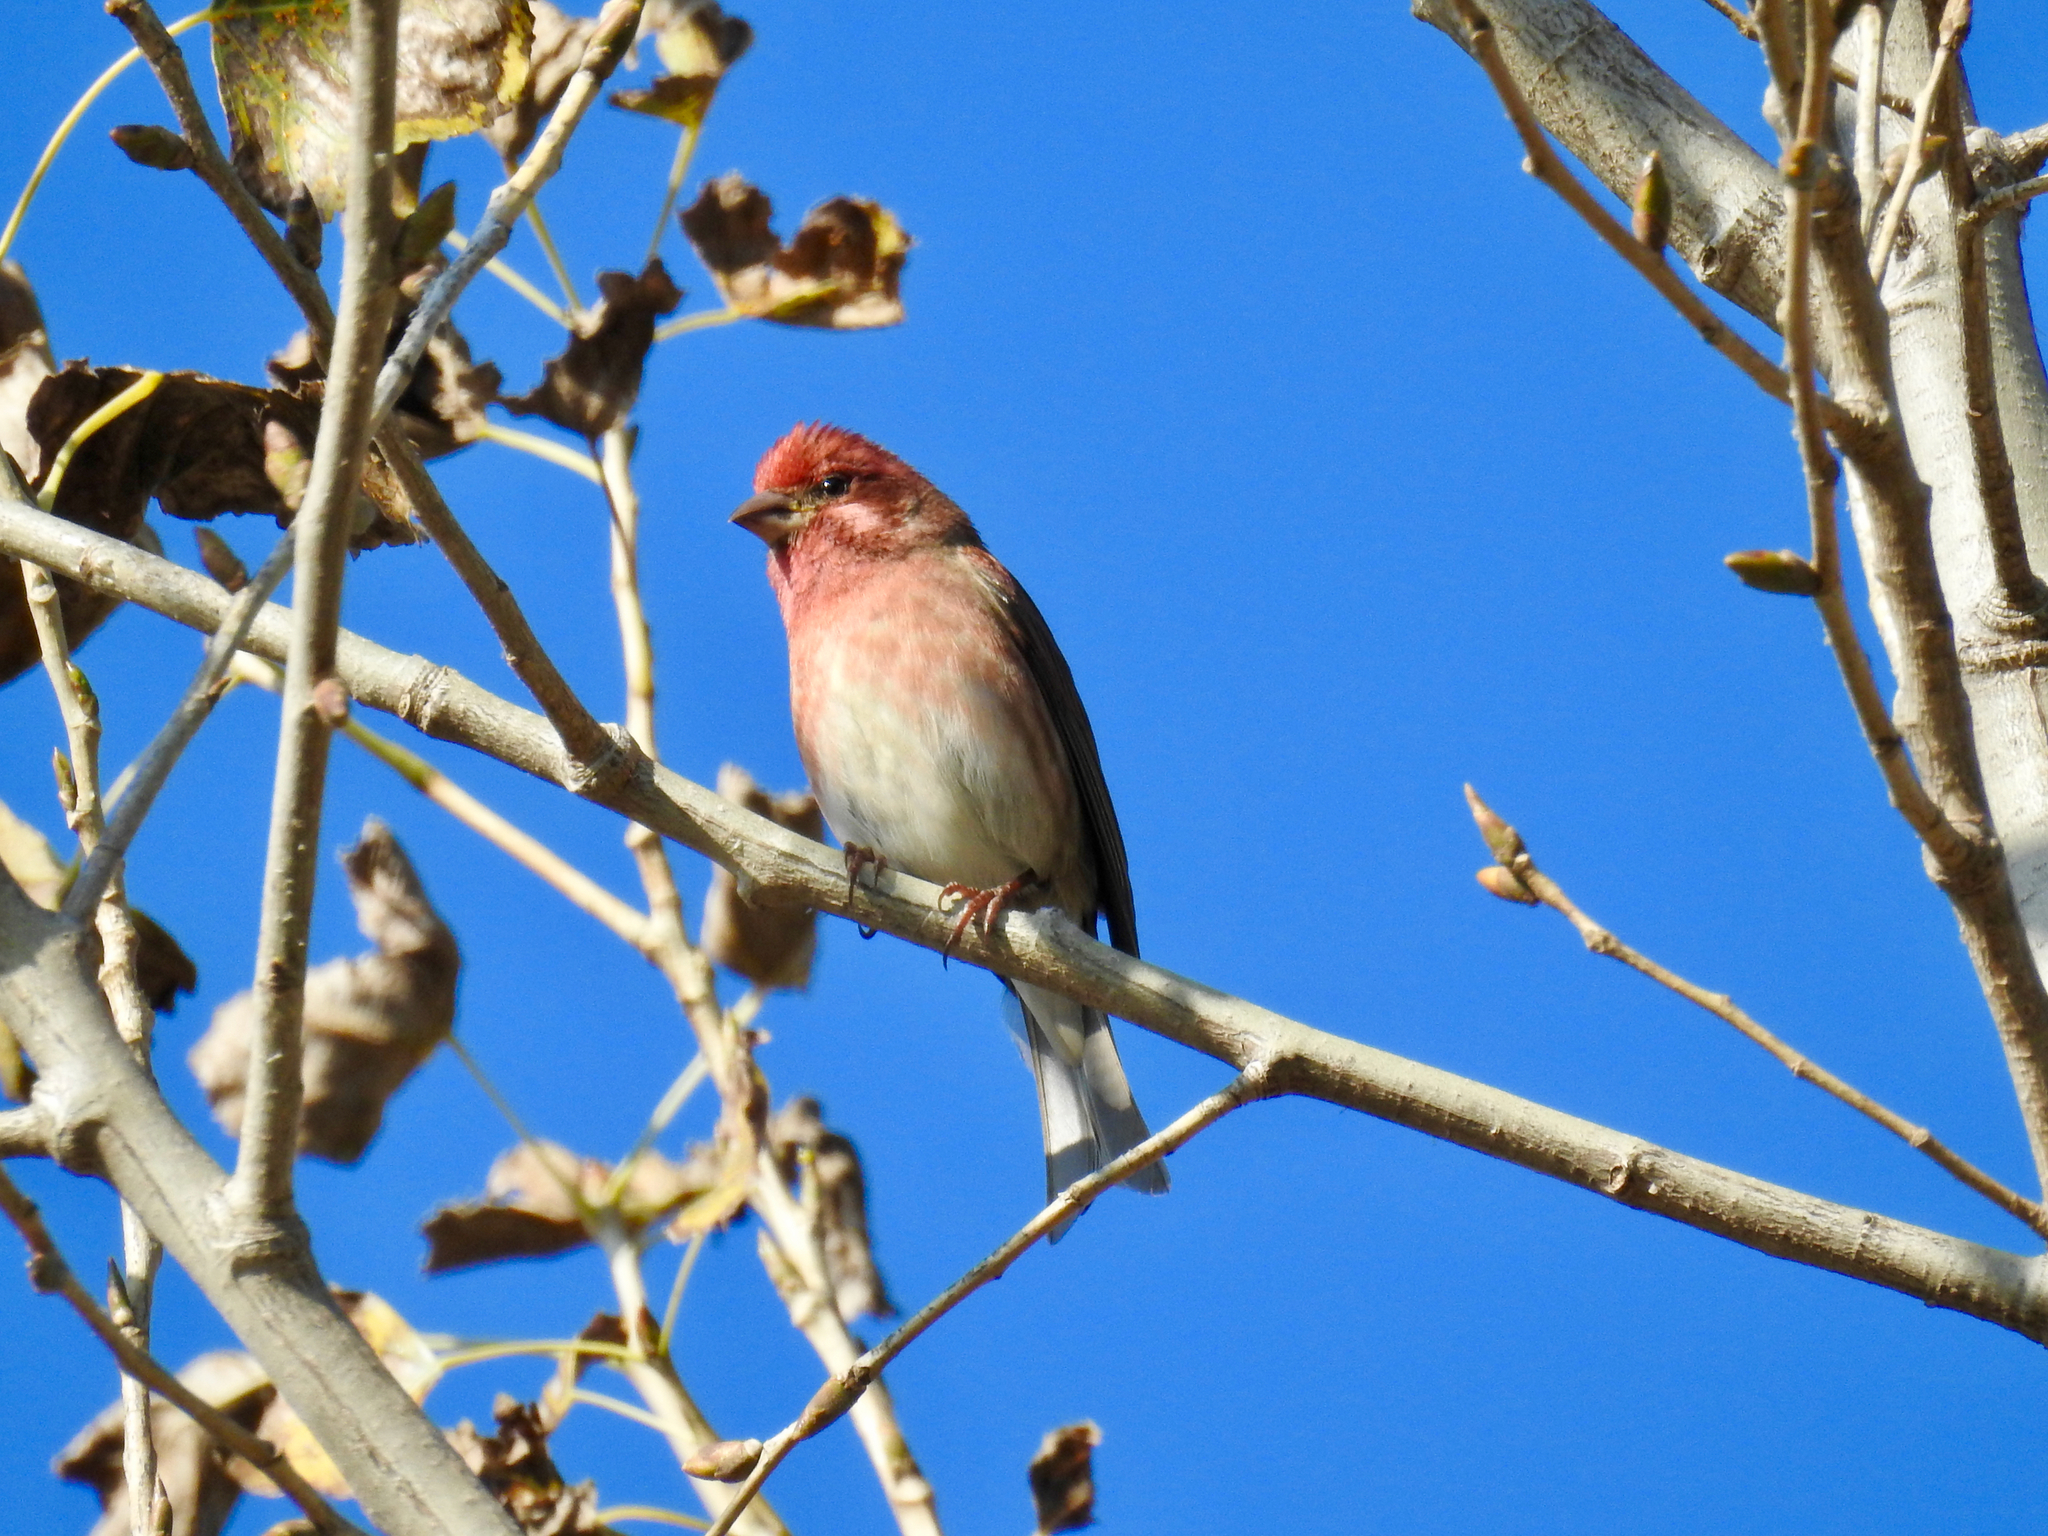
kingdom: Animalia
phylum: Chordata
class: Aves
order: Passeriformes
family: Fringillidae
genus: Haemorhous
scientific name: Haemorhous purpureus
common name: Purple finch
